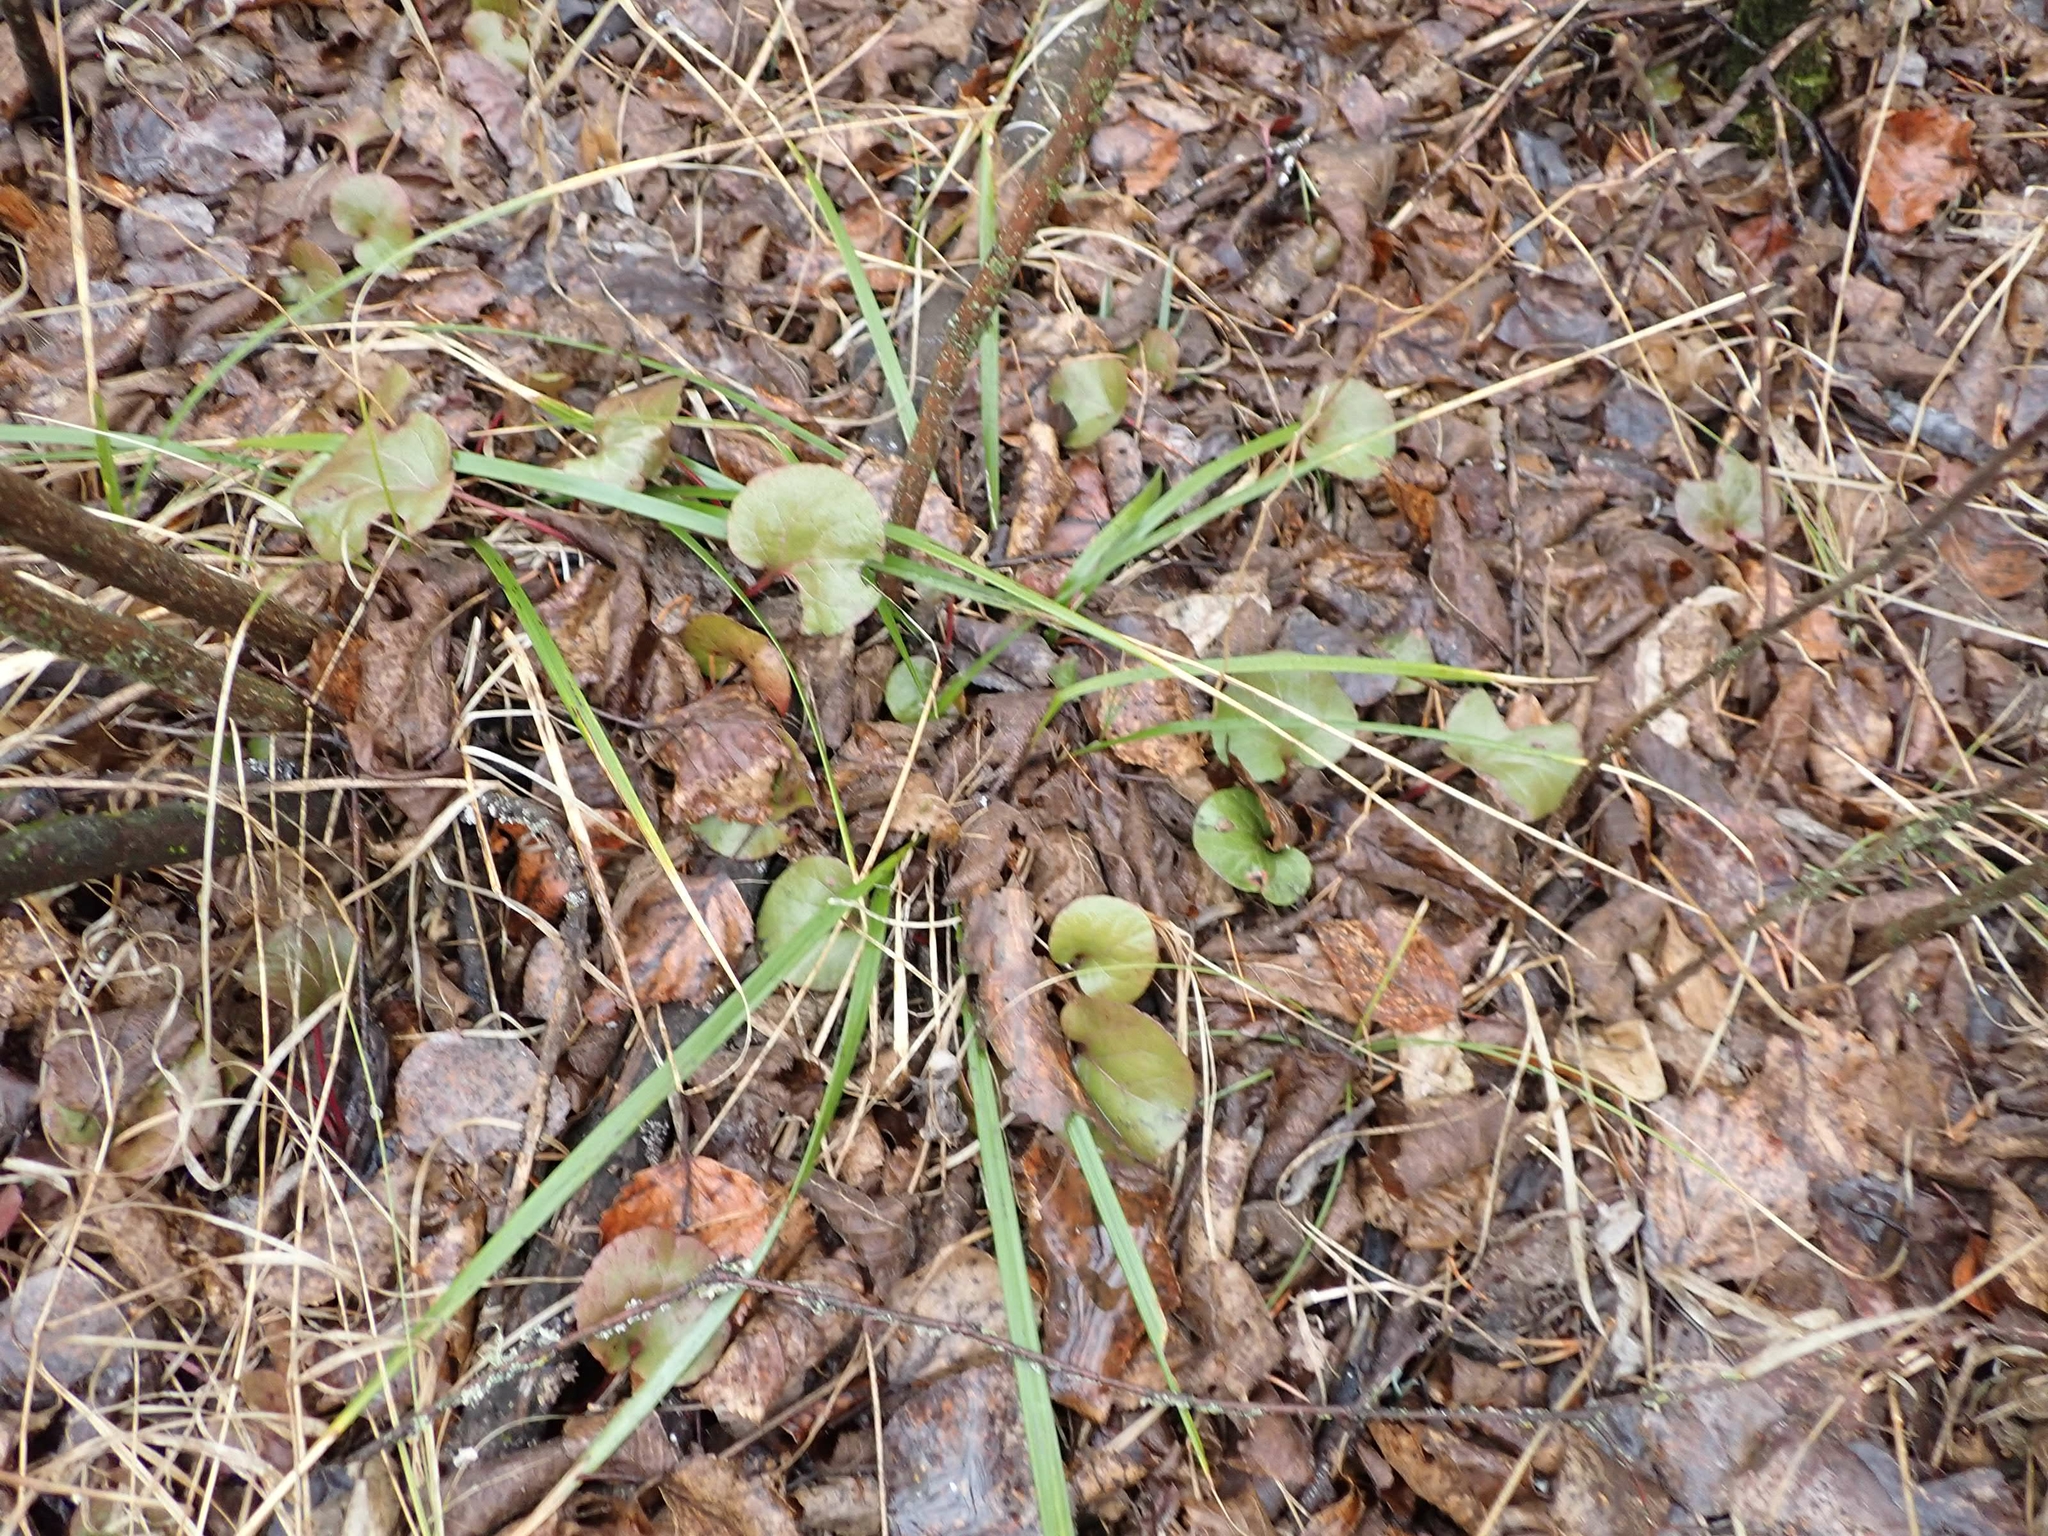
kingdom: Plantae
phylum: Tracheophyta
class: Magnoliopsida
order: Ericales
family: Ericaceae
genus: Pyrola
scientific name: Pyrola asarifolia
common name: Bog wintergreen
